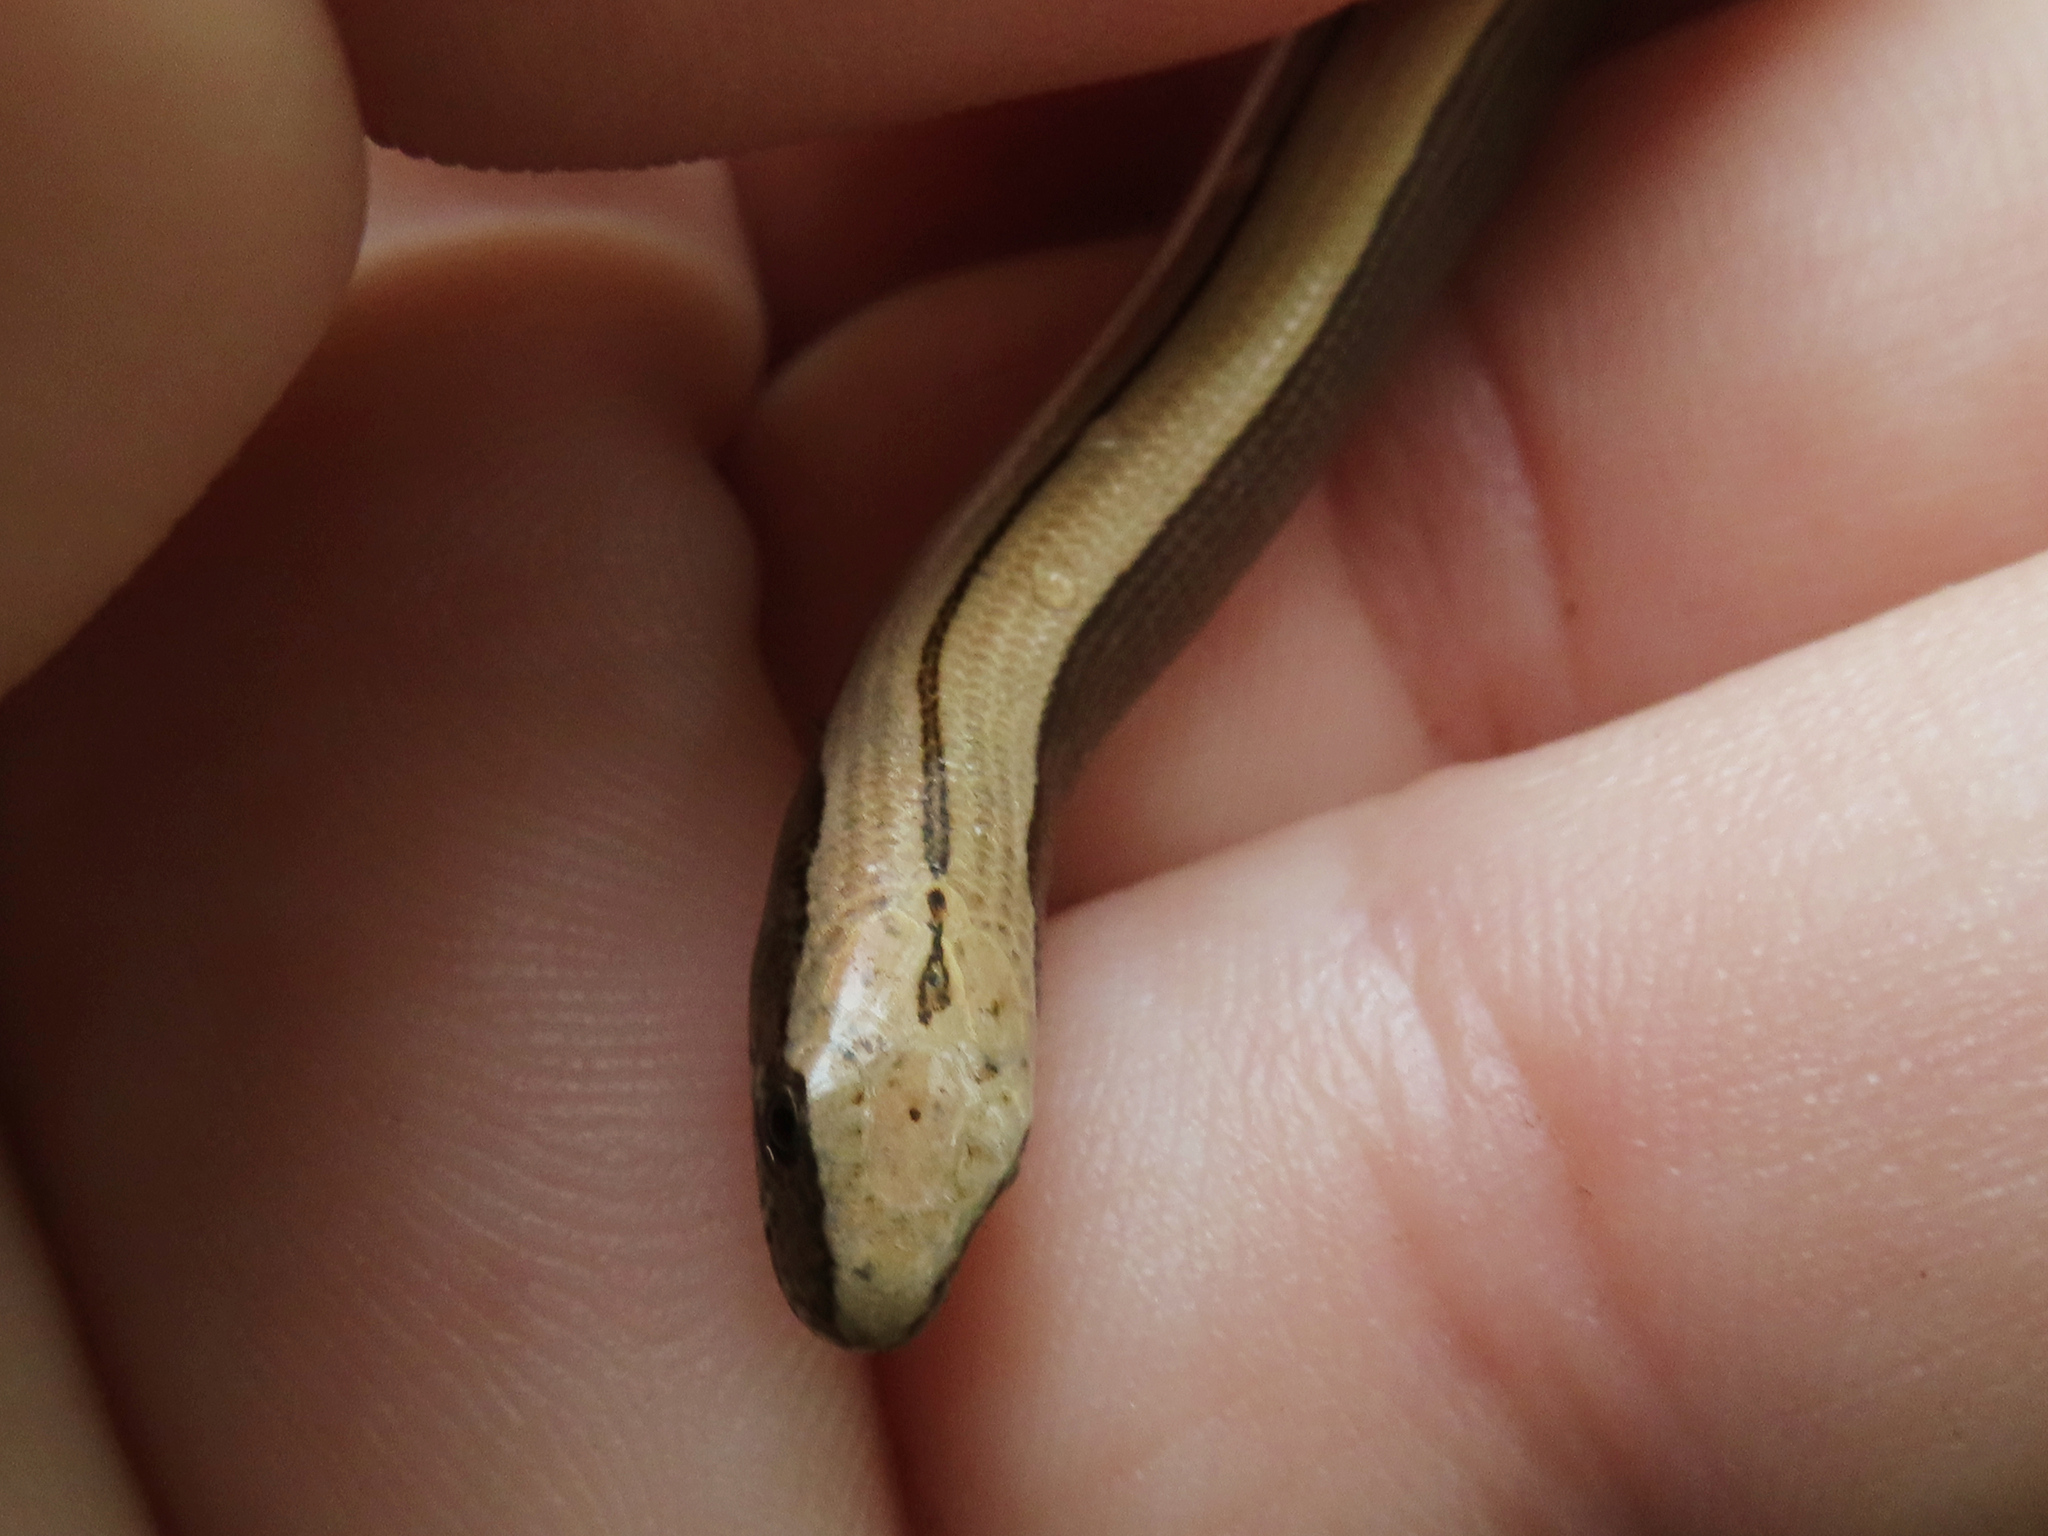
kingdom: Animalia
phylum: Chordata
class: Squamata
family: Anguidae
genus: Anguis
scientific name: Anguis colchica
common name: Slow worm
